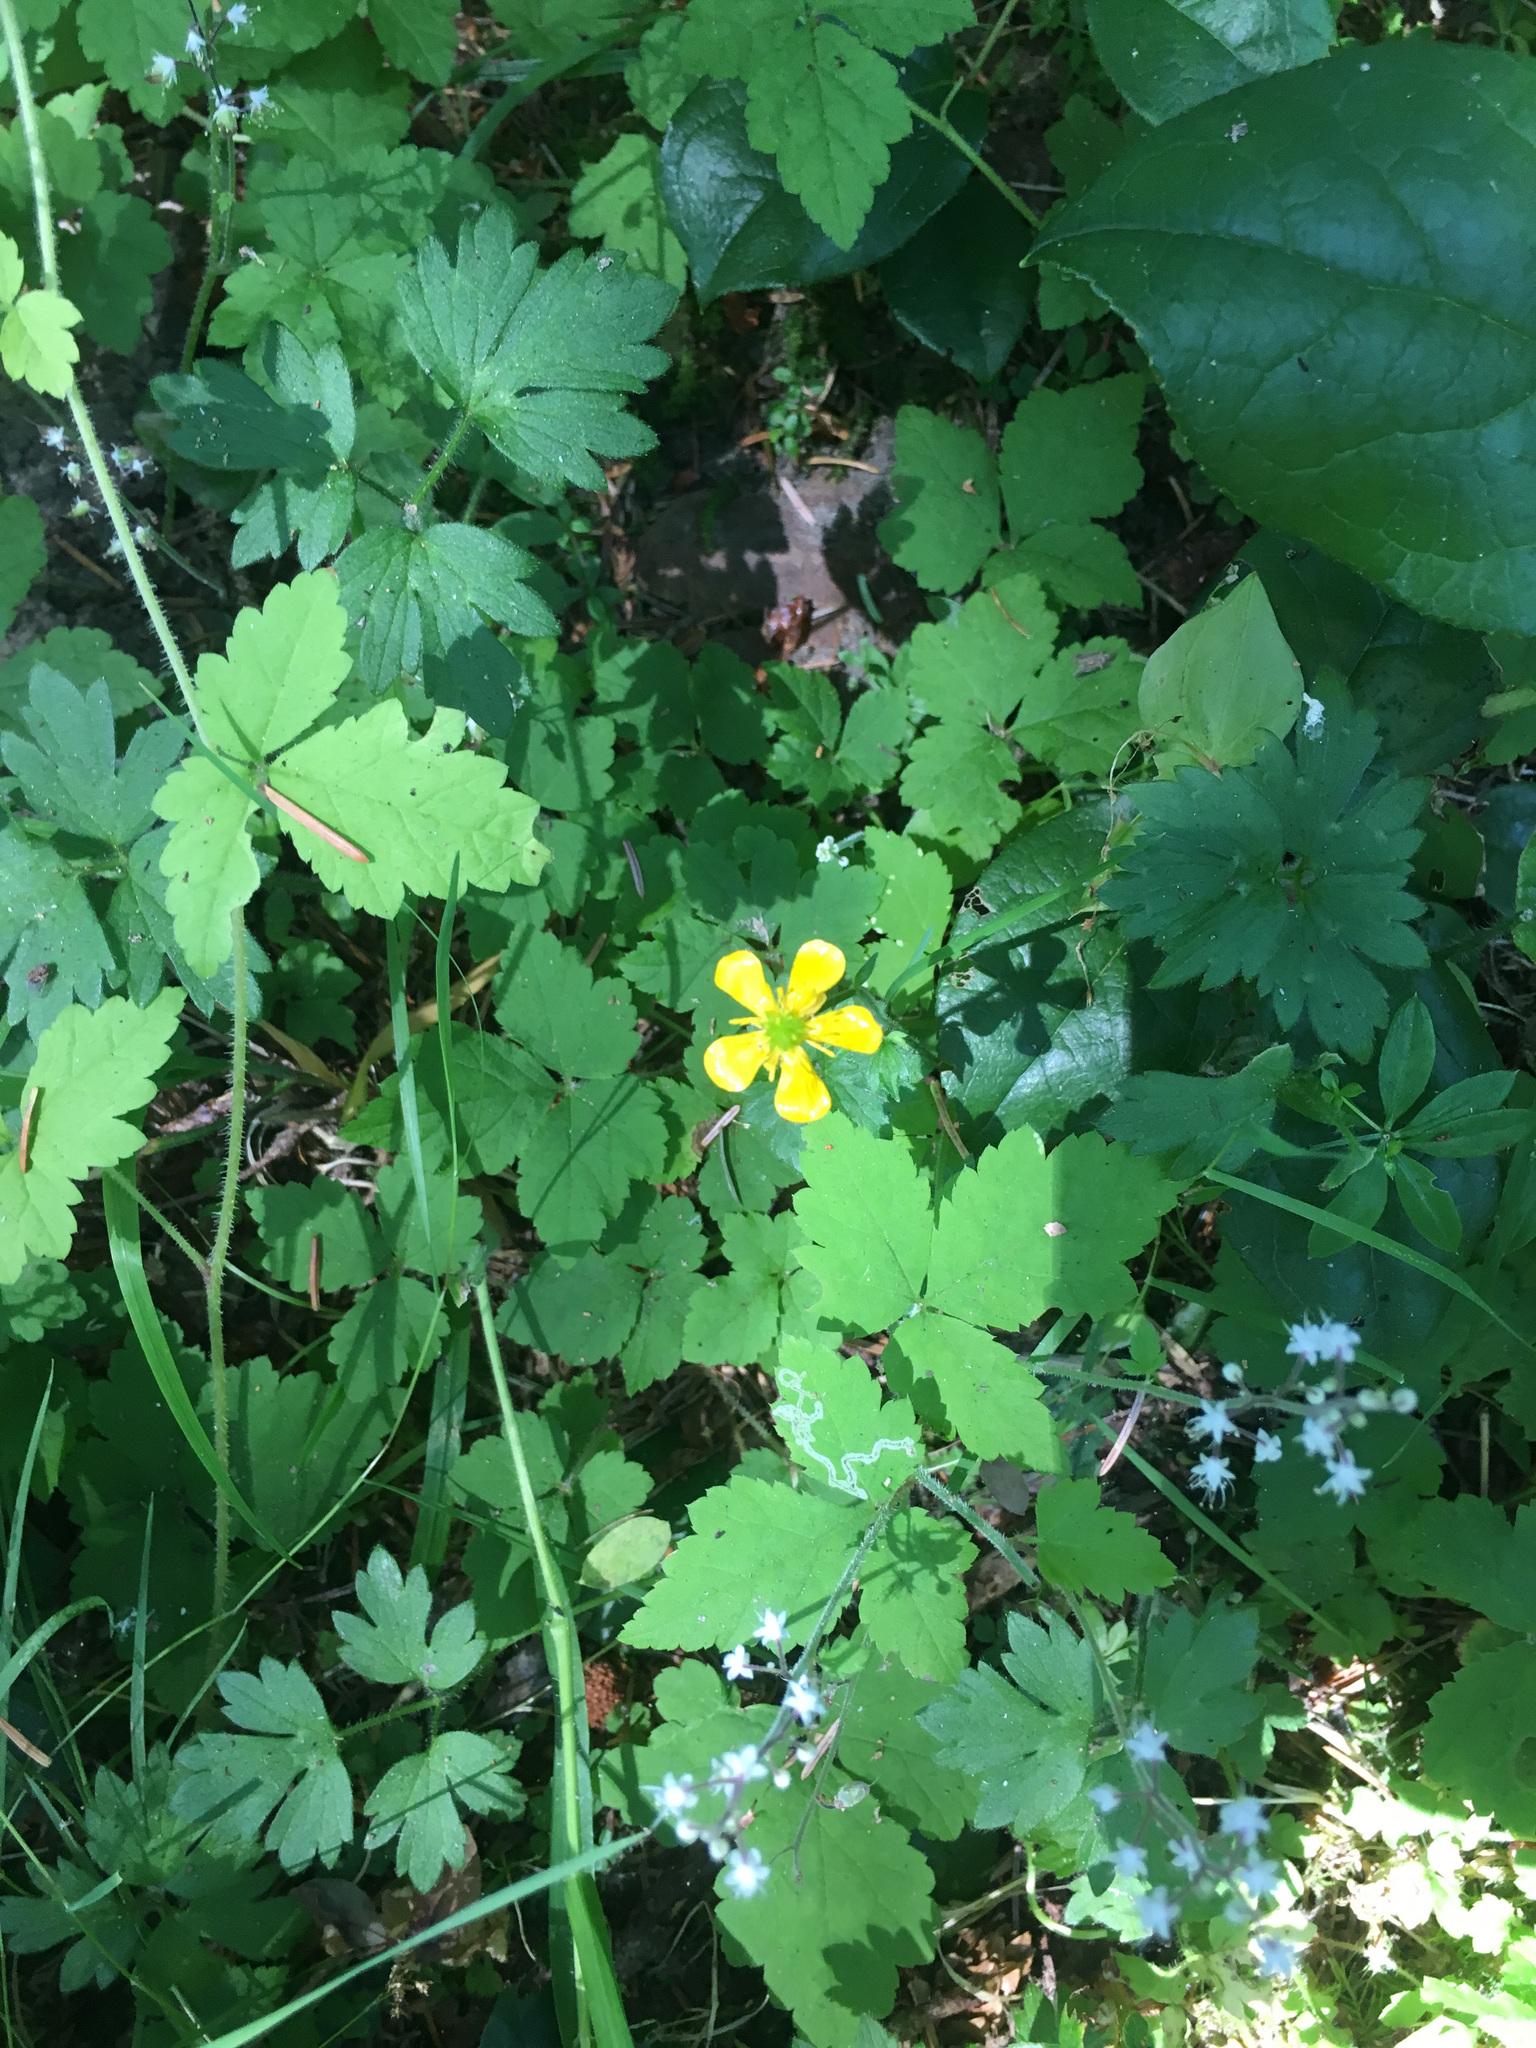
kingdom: Plantae
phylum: Tracheophyta
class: Magnoliopsida
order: Ranunculales
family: Ranunculaceae
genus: Ranunculus
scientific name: Ranunculus repens
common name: Creeping buttercup
